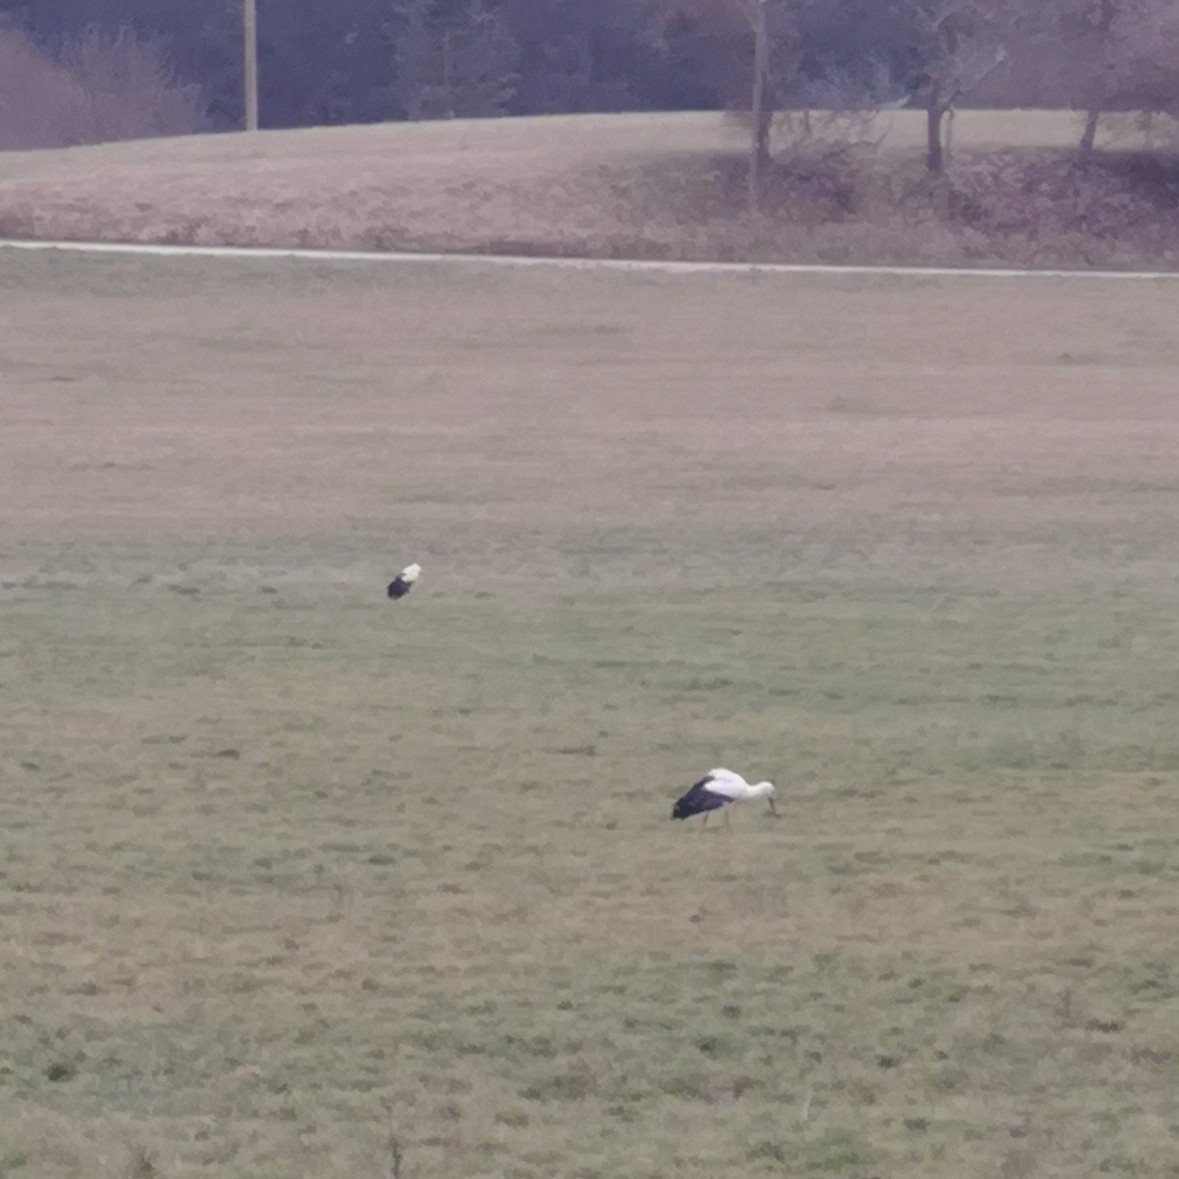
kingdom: Animalia
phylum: Chordata
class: Aves
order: Ciconiiformes
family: Ciconiidae
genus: Ciconia
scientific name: Ciconia ciconia
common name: White stork
